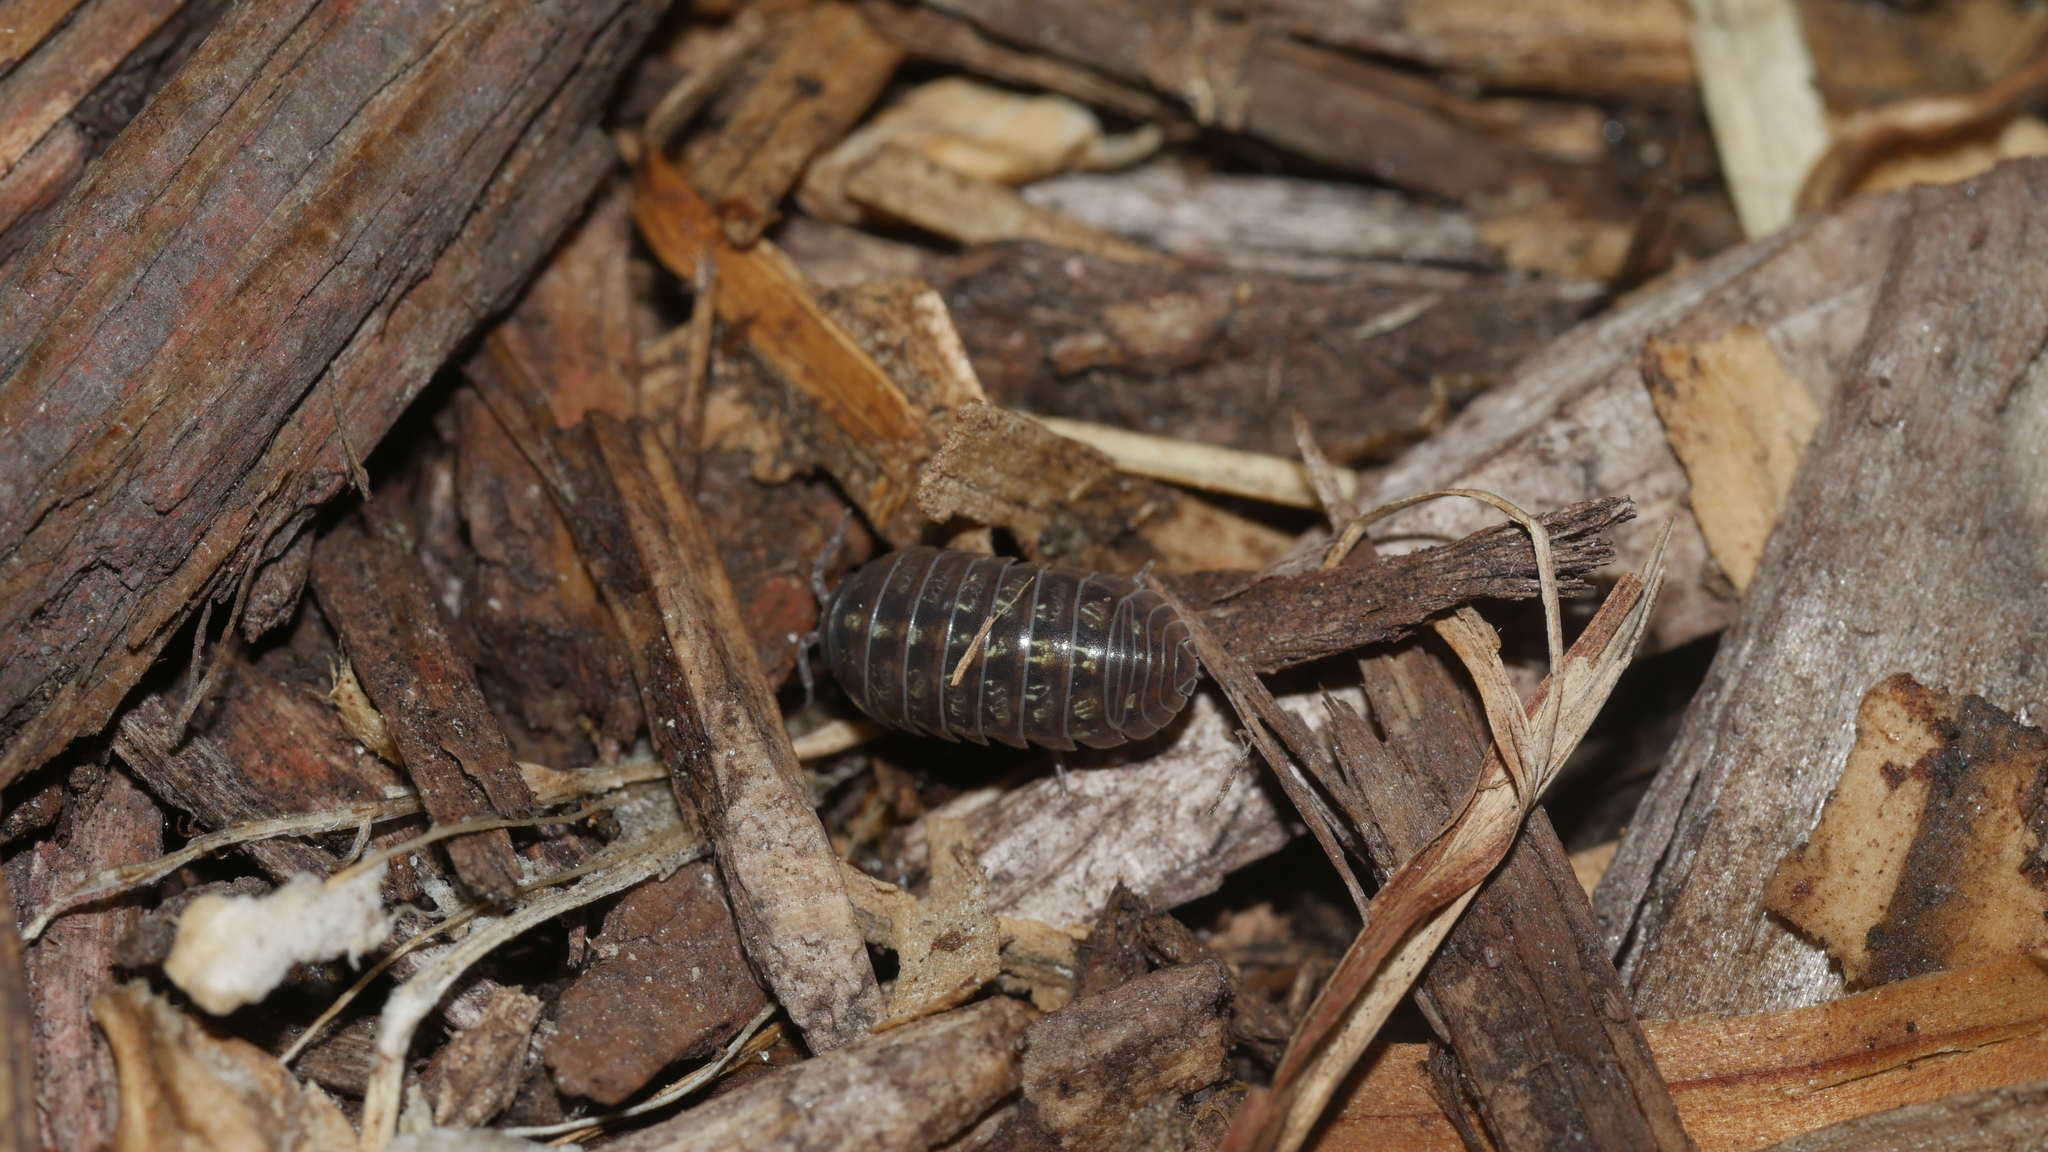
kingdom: Animalia
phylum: Arthropoda
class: Malacostraca
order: Isopoda
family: Armadillidiidae
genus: Armadillidium
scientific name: Armadillidium vulgare
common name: Common pill woodlouse
